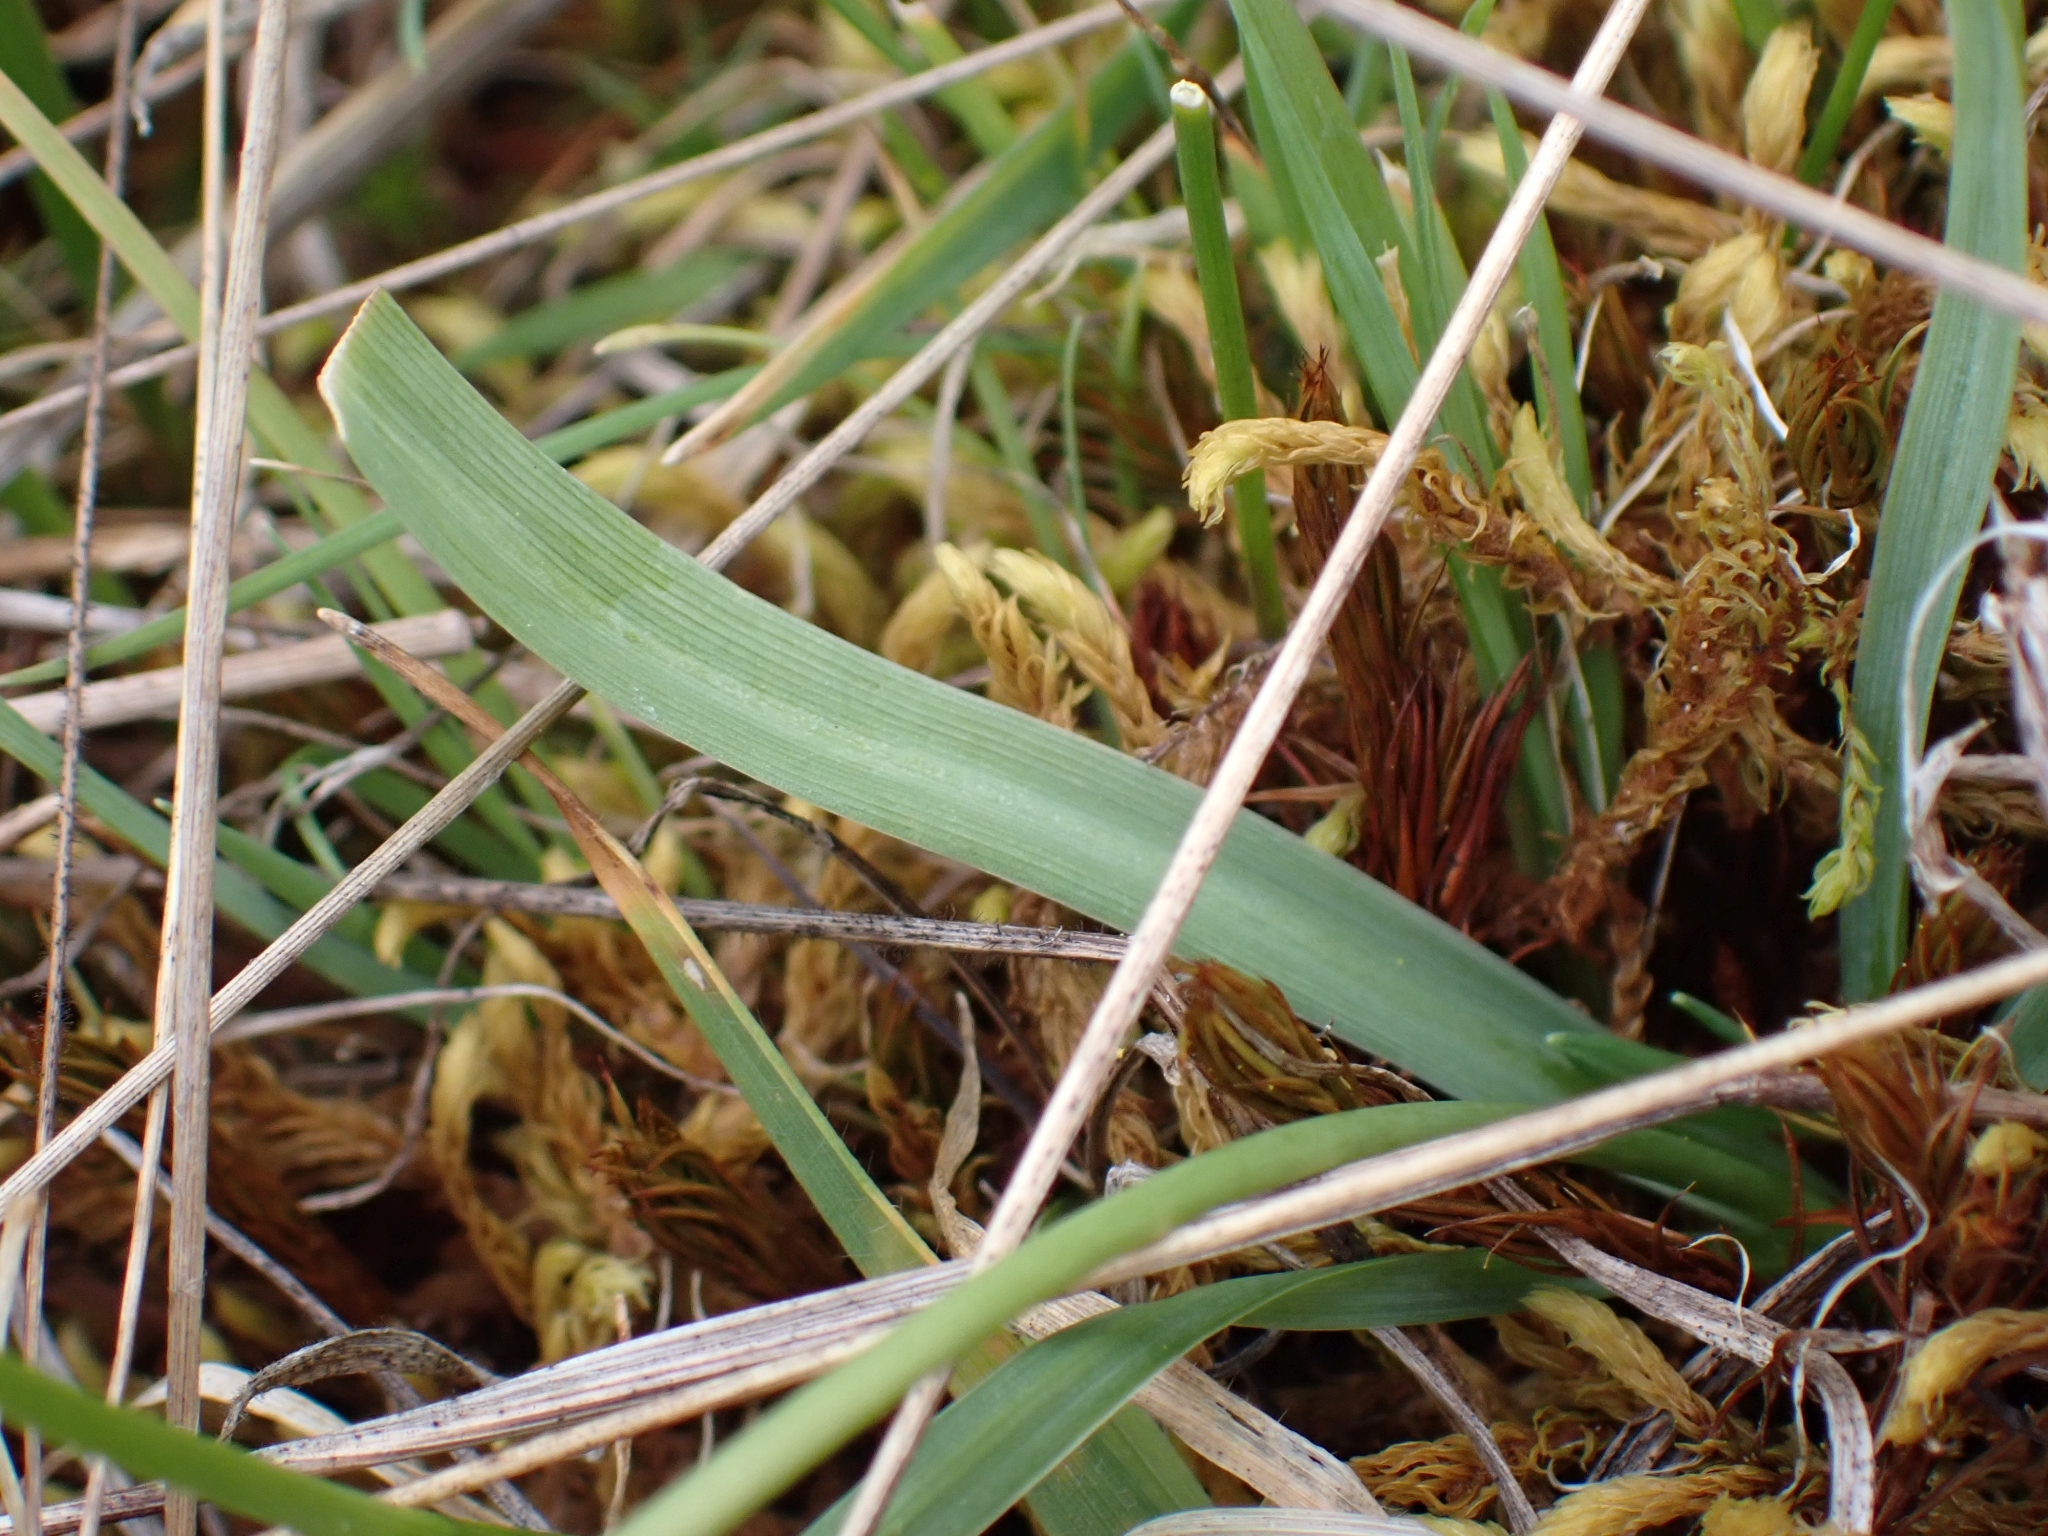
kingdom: Plantae
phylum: Tracheophyta
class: Liliopsida
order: Asparagales
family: Asparagaceae
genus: Camassia
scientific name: Camassia quamash
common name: Common camas
